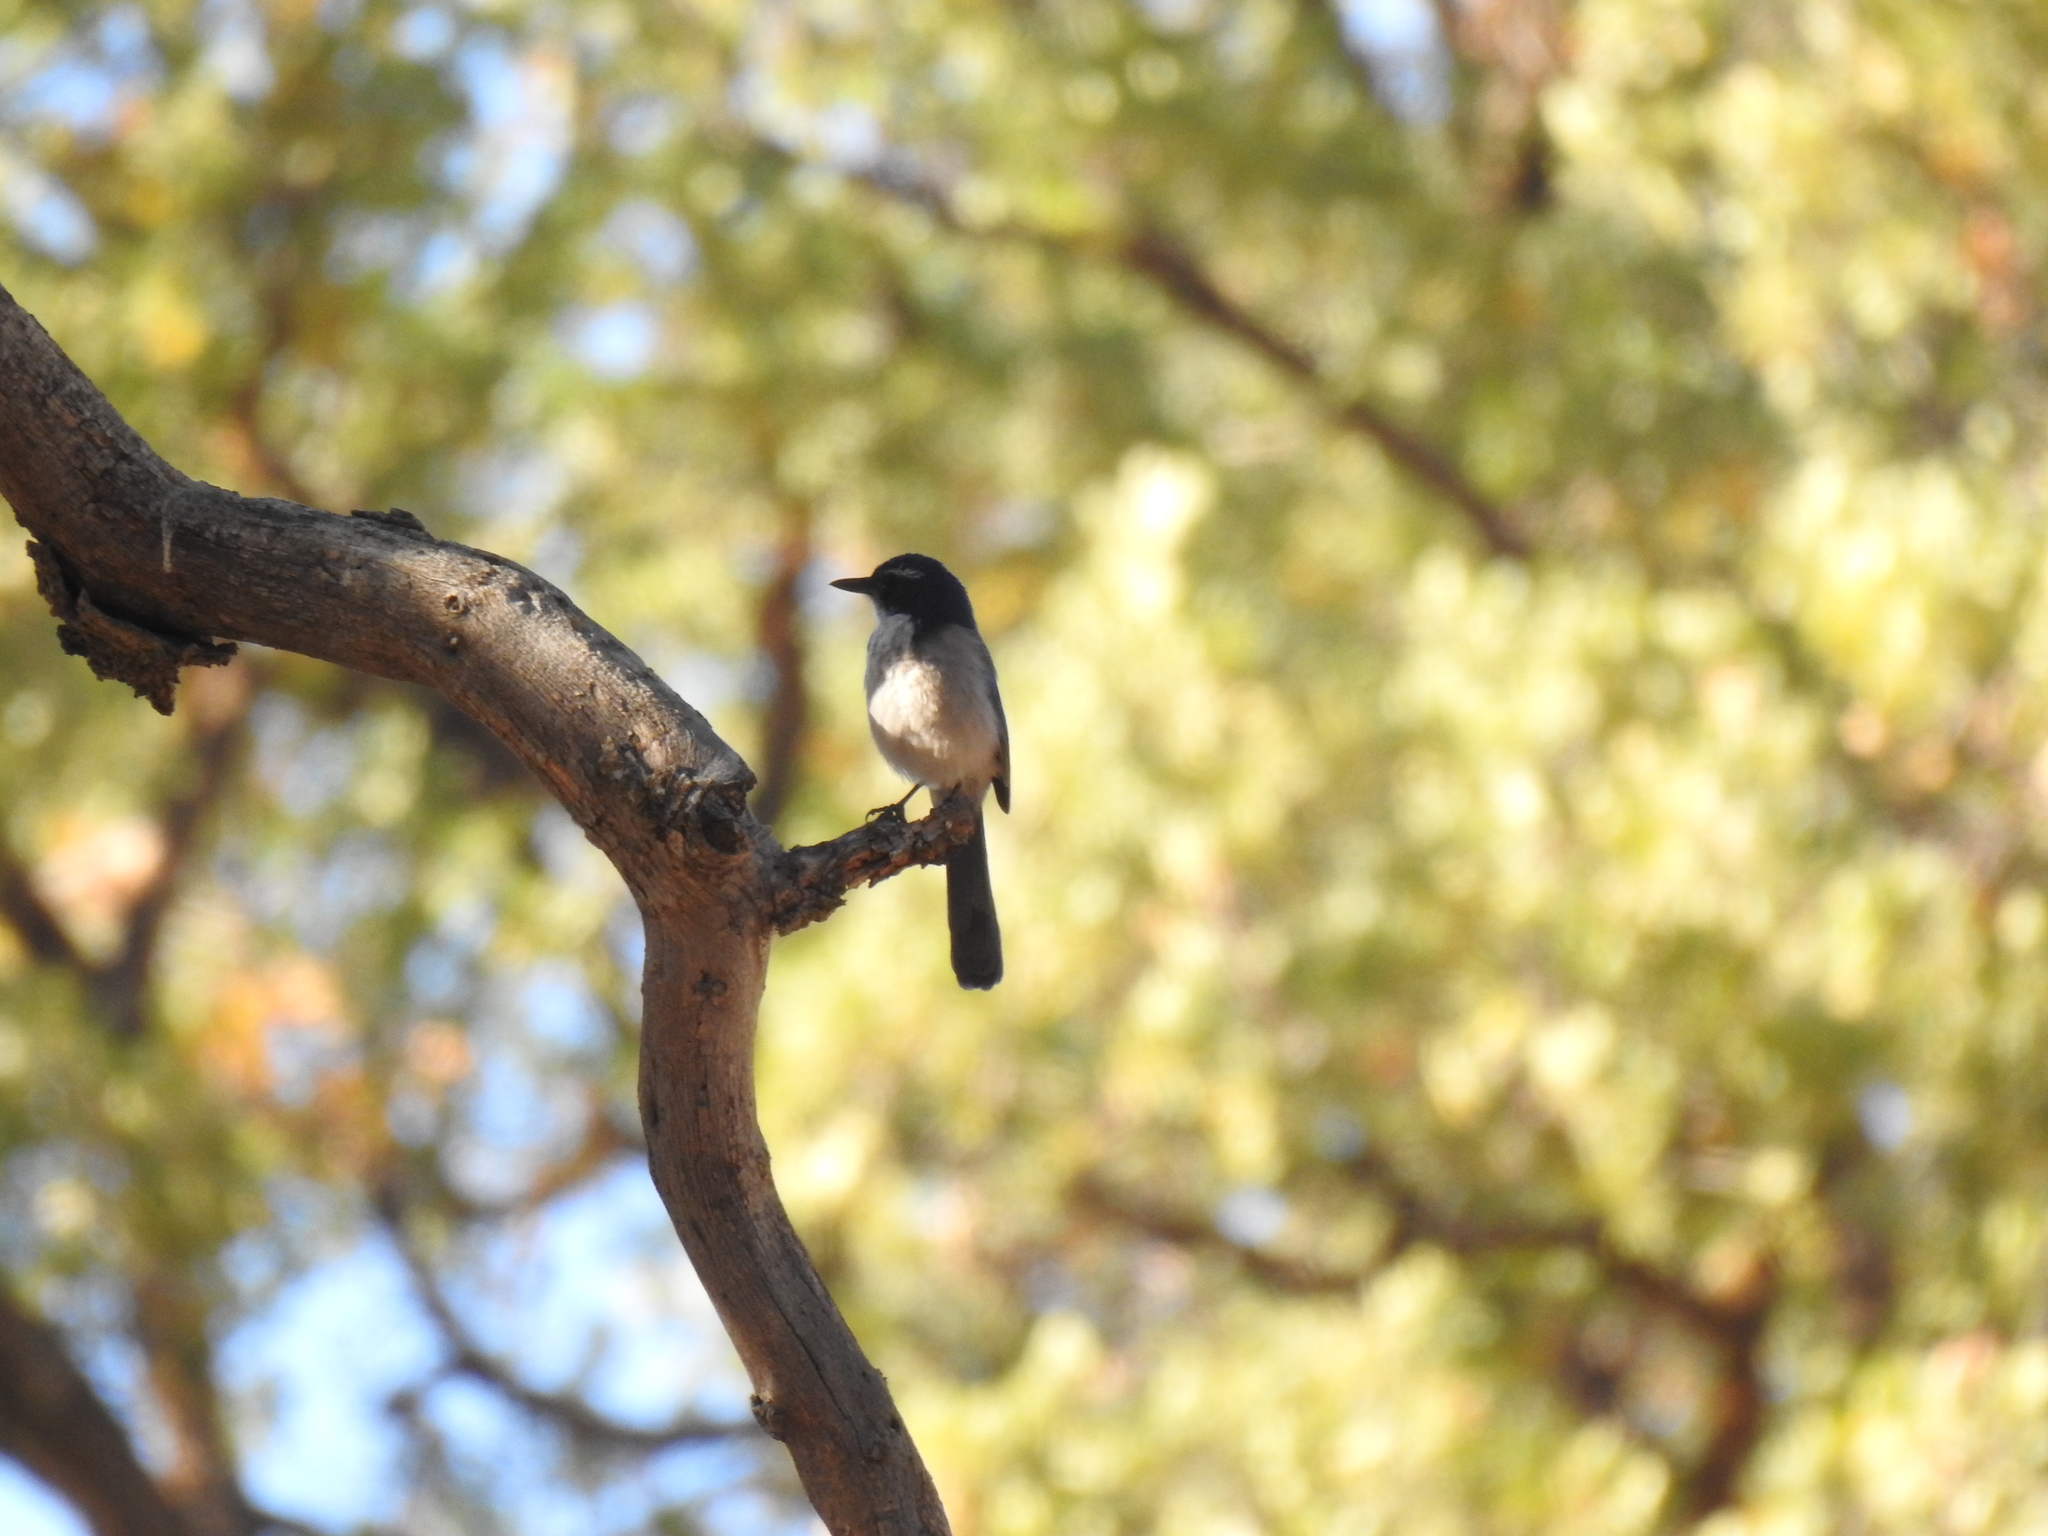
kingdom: Animalia
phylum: Chordata
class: Aves
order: Passeriformes
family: Corvidae
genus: Aphelocoma
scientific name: Aphelocoma californica
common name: California scrub-jay
